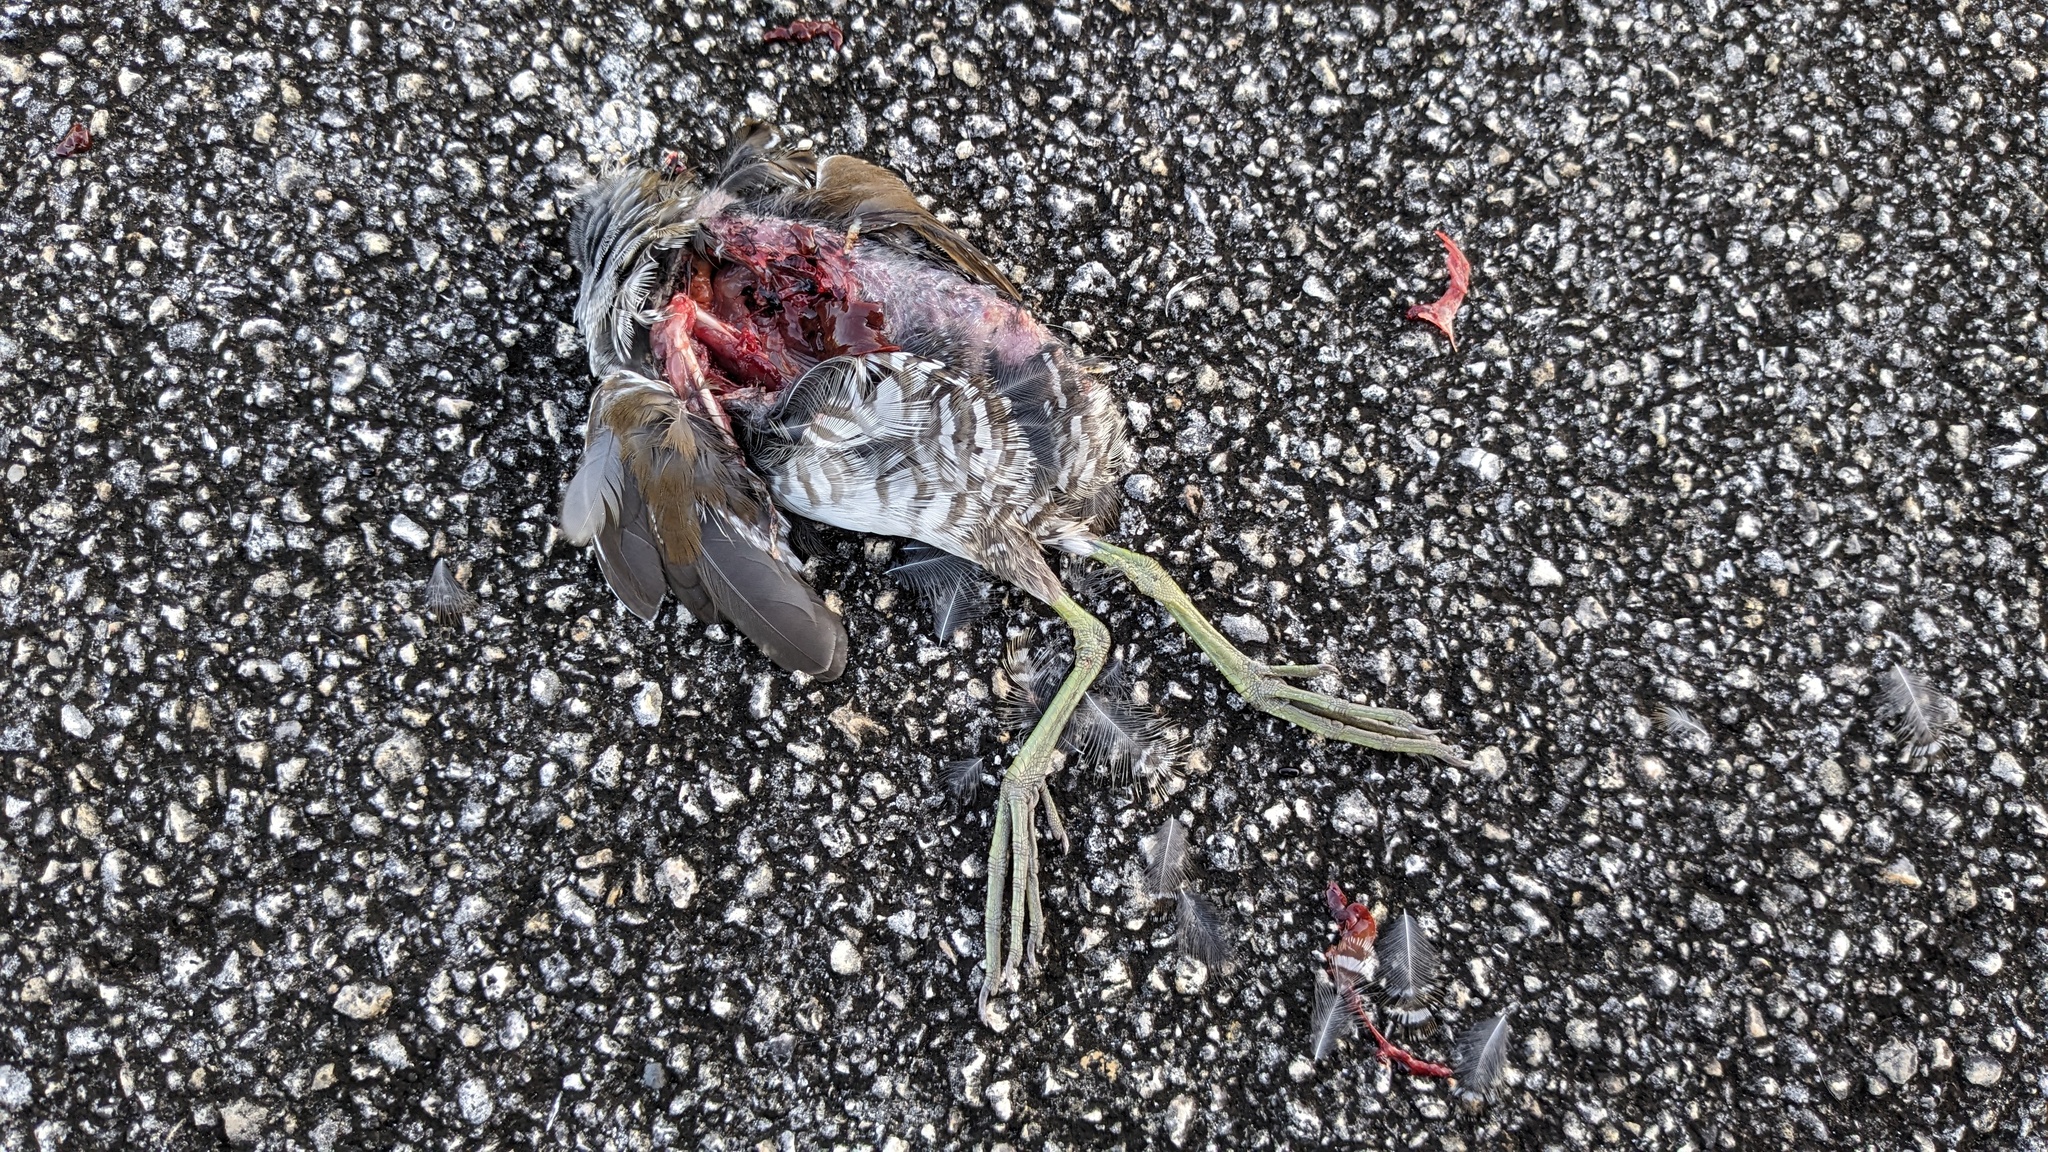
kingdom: Animalia
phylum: Chordata
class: Aves
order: Gruiformes
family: Rallidae
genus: Rallus
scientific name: Rallus crepitans
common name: Clapper rail
